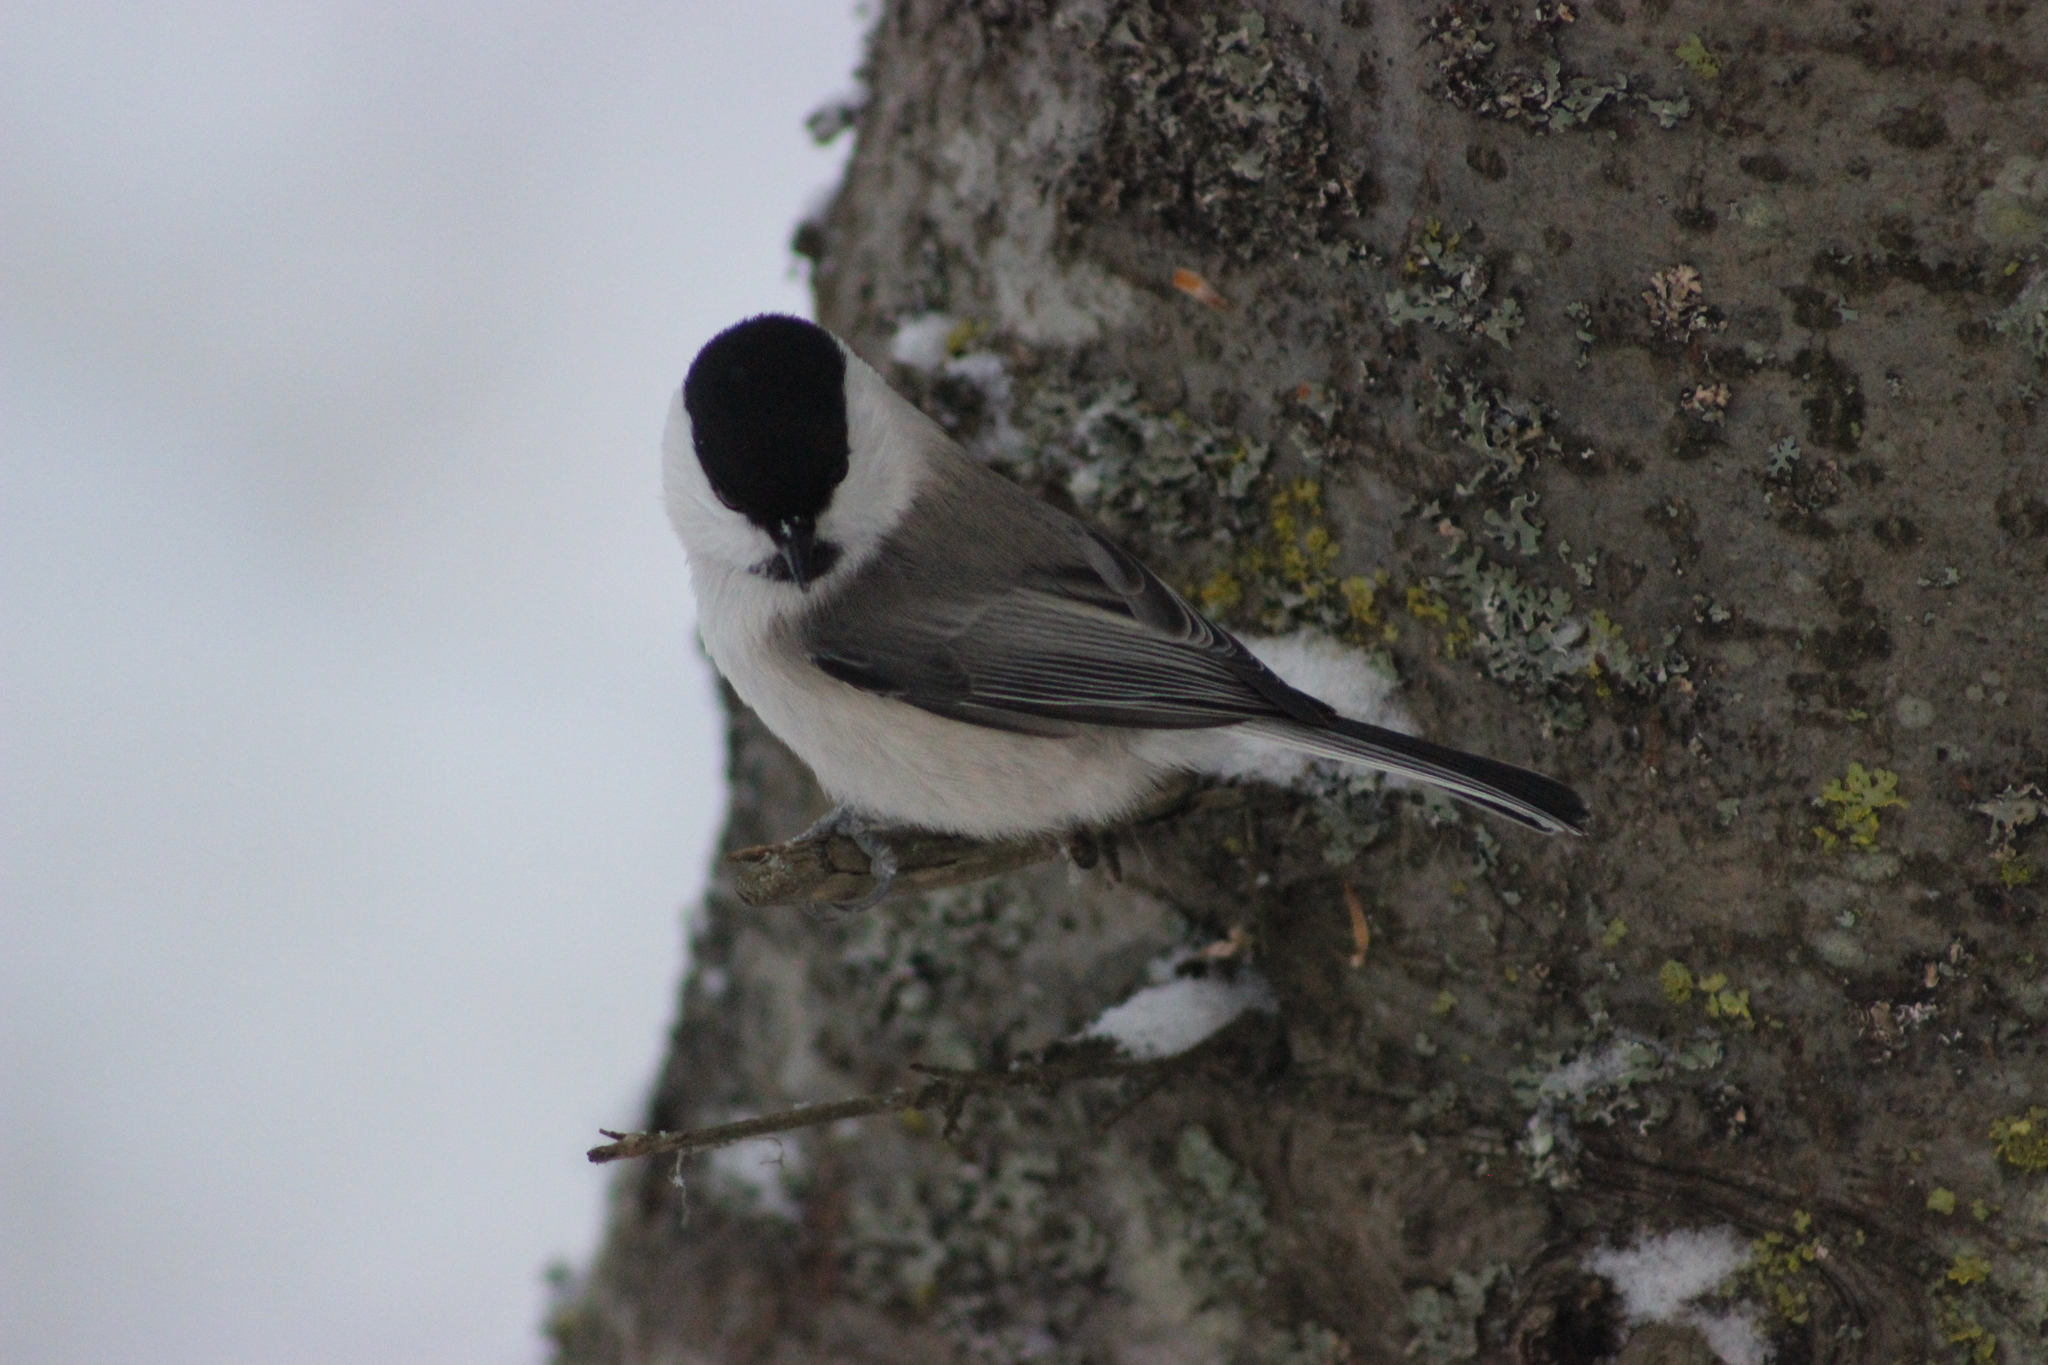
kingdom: Animalia
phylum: Chordata
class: Aves
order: Passeriformes
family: Paridae
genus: Poecile
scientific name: Poecile montanus
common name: Willow tit
